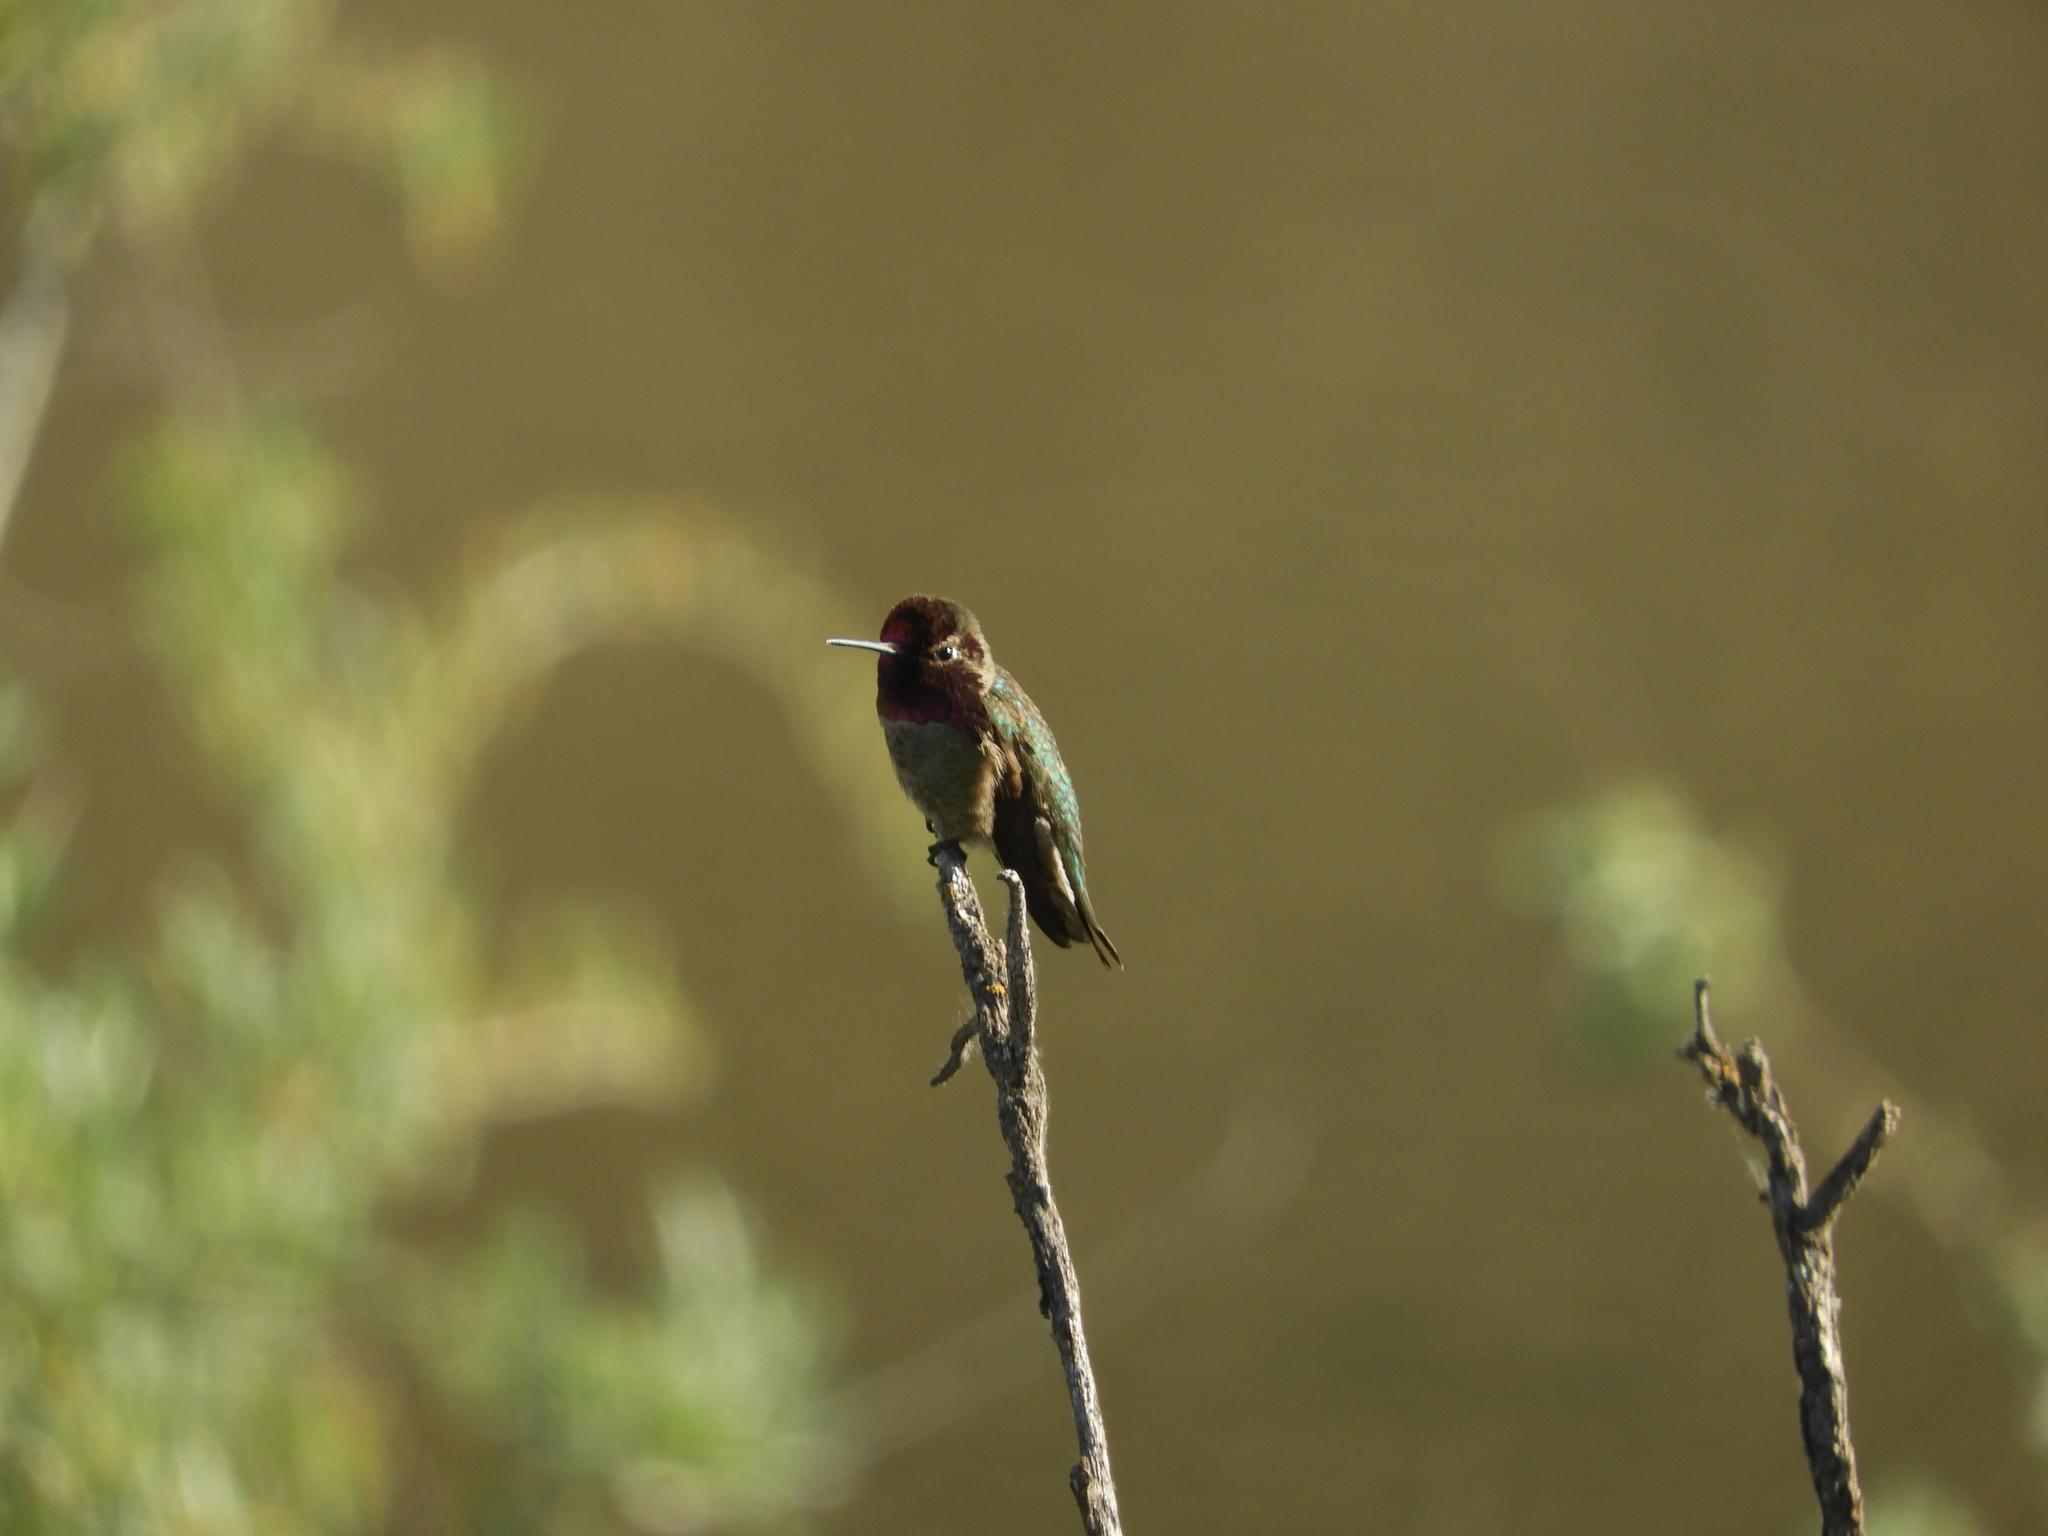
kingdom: Animalia
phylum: Chordata
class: Aves
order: Apodiformes
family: Trochilidae
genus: Calypte
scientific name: Calypte anna
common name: Anna's hummingbird
